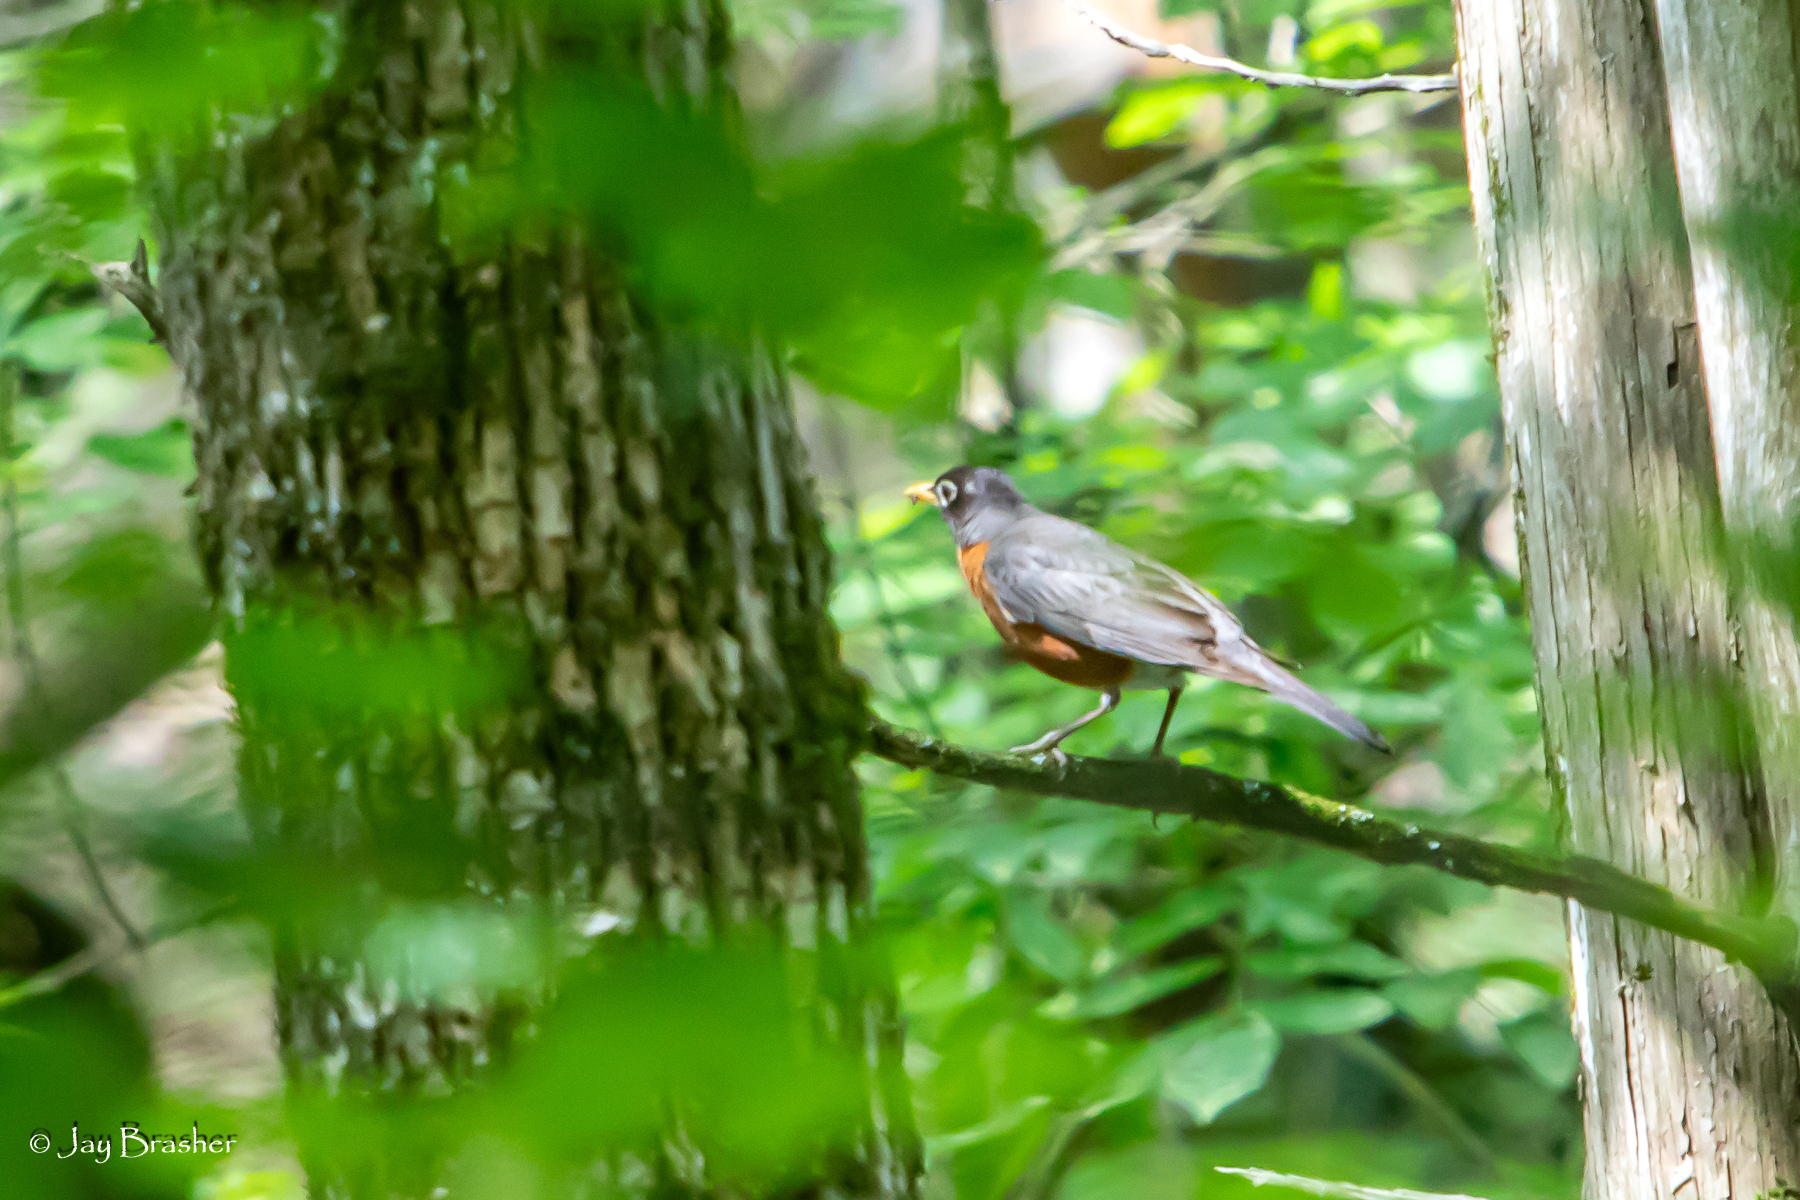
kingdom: Animalia
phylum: Chordata
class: Aves
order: Passeriformes
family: Turdidae
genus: Turdus
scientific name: Turdus migratorius
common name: American robin
